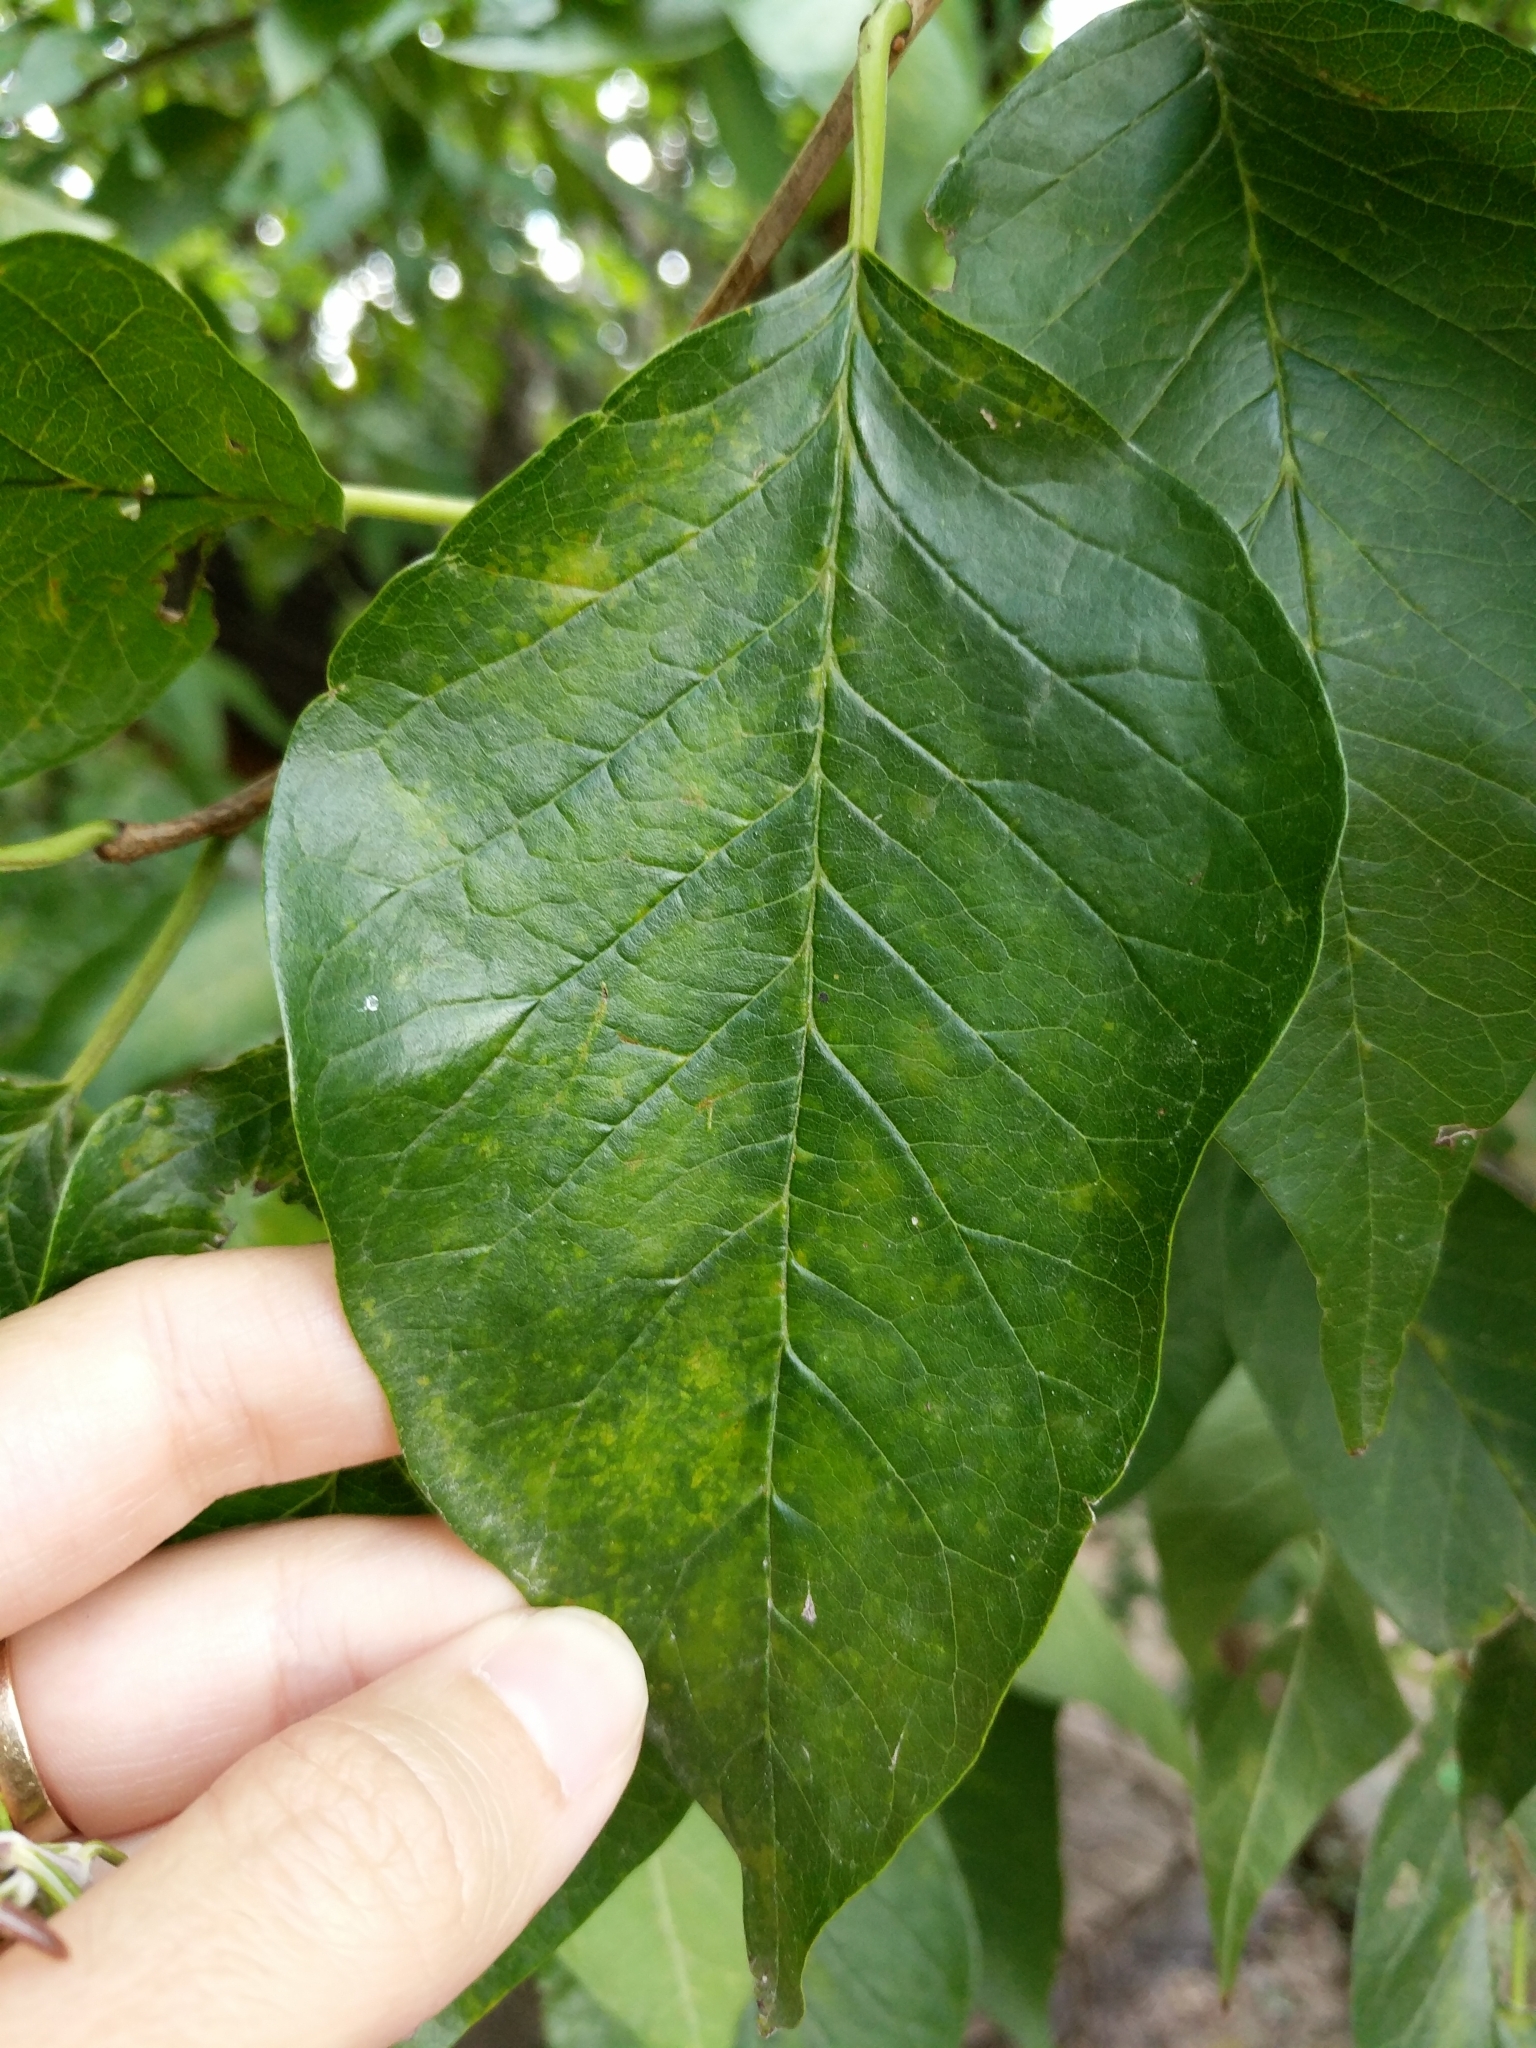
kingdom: Plantae
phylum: Tracheophyta
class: Magnoliopsida
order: Rosales
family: Moraceae
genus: Maclura
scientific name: Maclura pomifera
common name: Osage-orange
